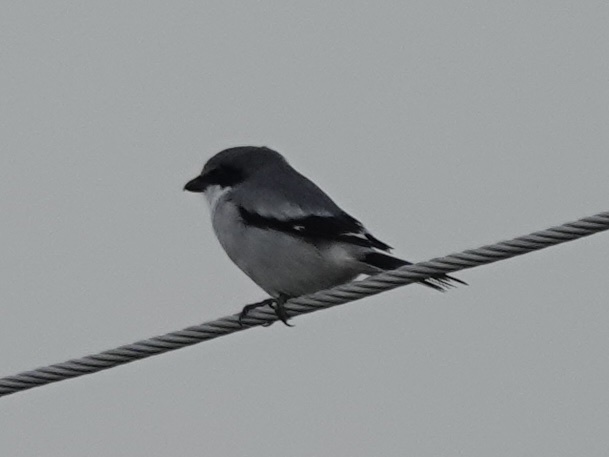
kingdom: Animalia
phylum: Chordata
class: Aves
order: Passeriformes
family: Laniidae
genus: Lanius
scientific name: Lanius ludovicianus
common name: Loggerhead shrike
